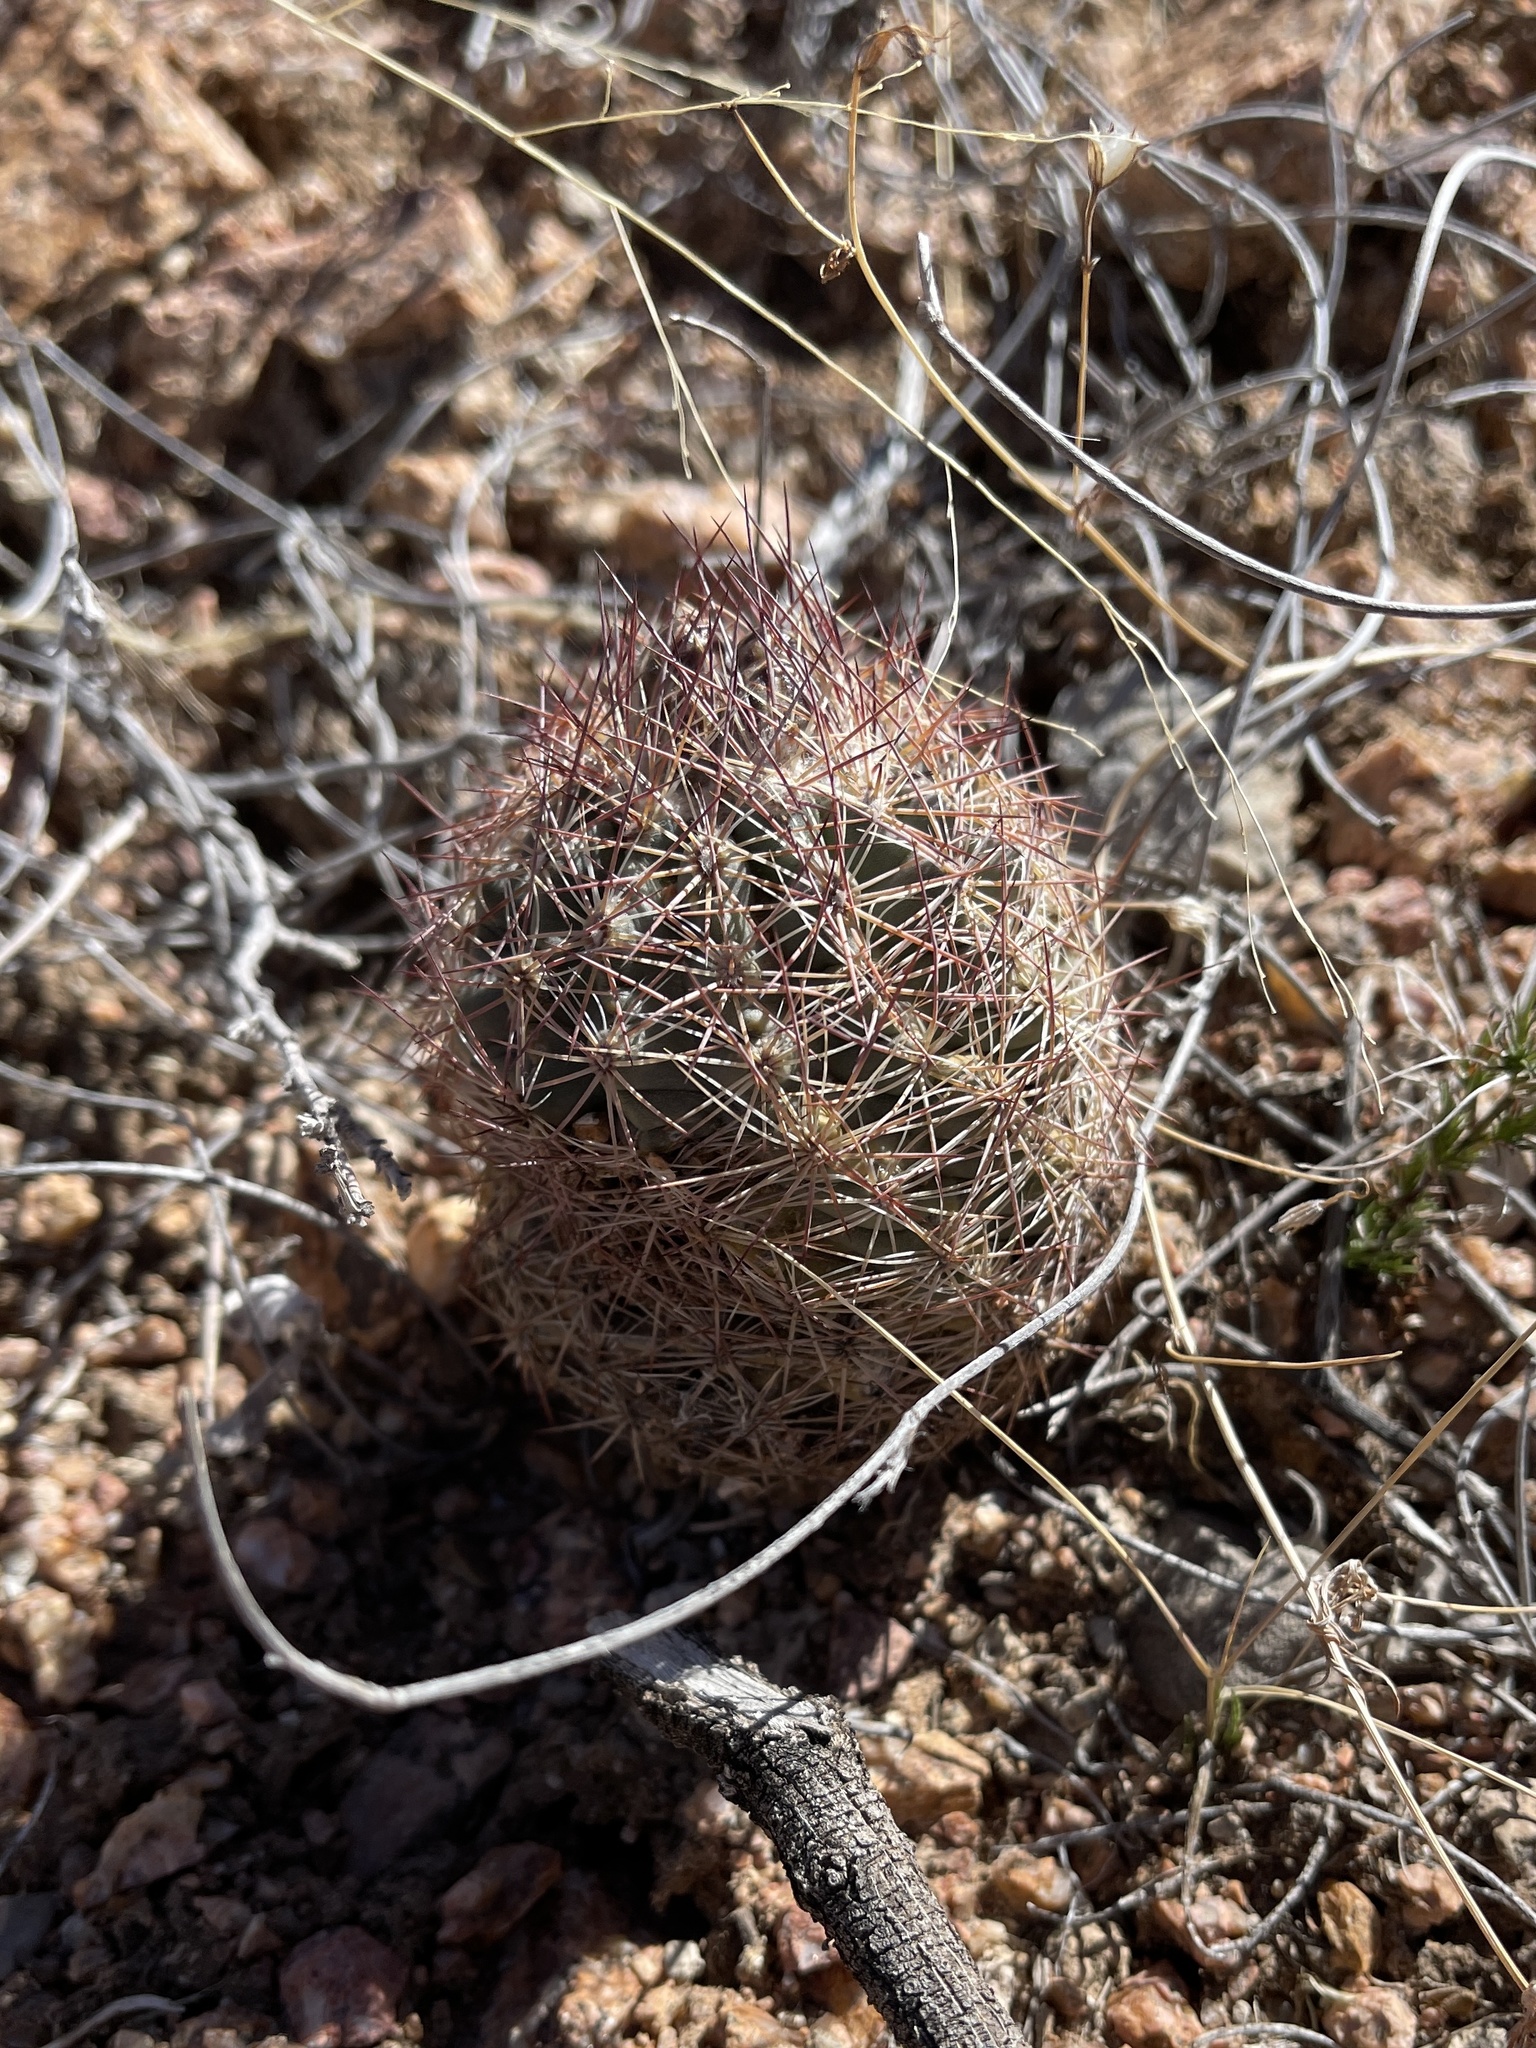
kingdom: Plantae
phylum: Tracheophyta
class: Magnoliopsida
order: Caryophyllales
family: Cactaceae
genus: Sclerocactus
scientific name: Sclerocactus intertextus
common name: White fish-hook cactus
